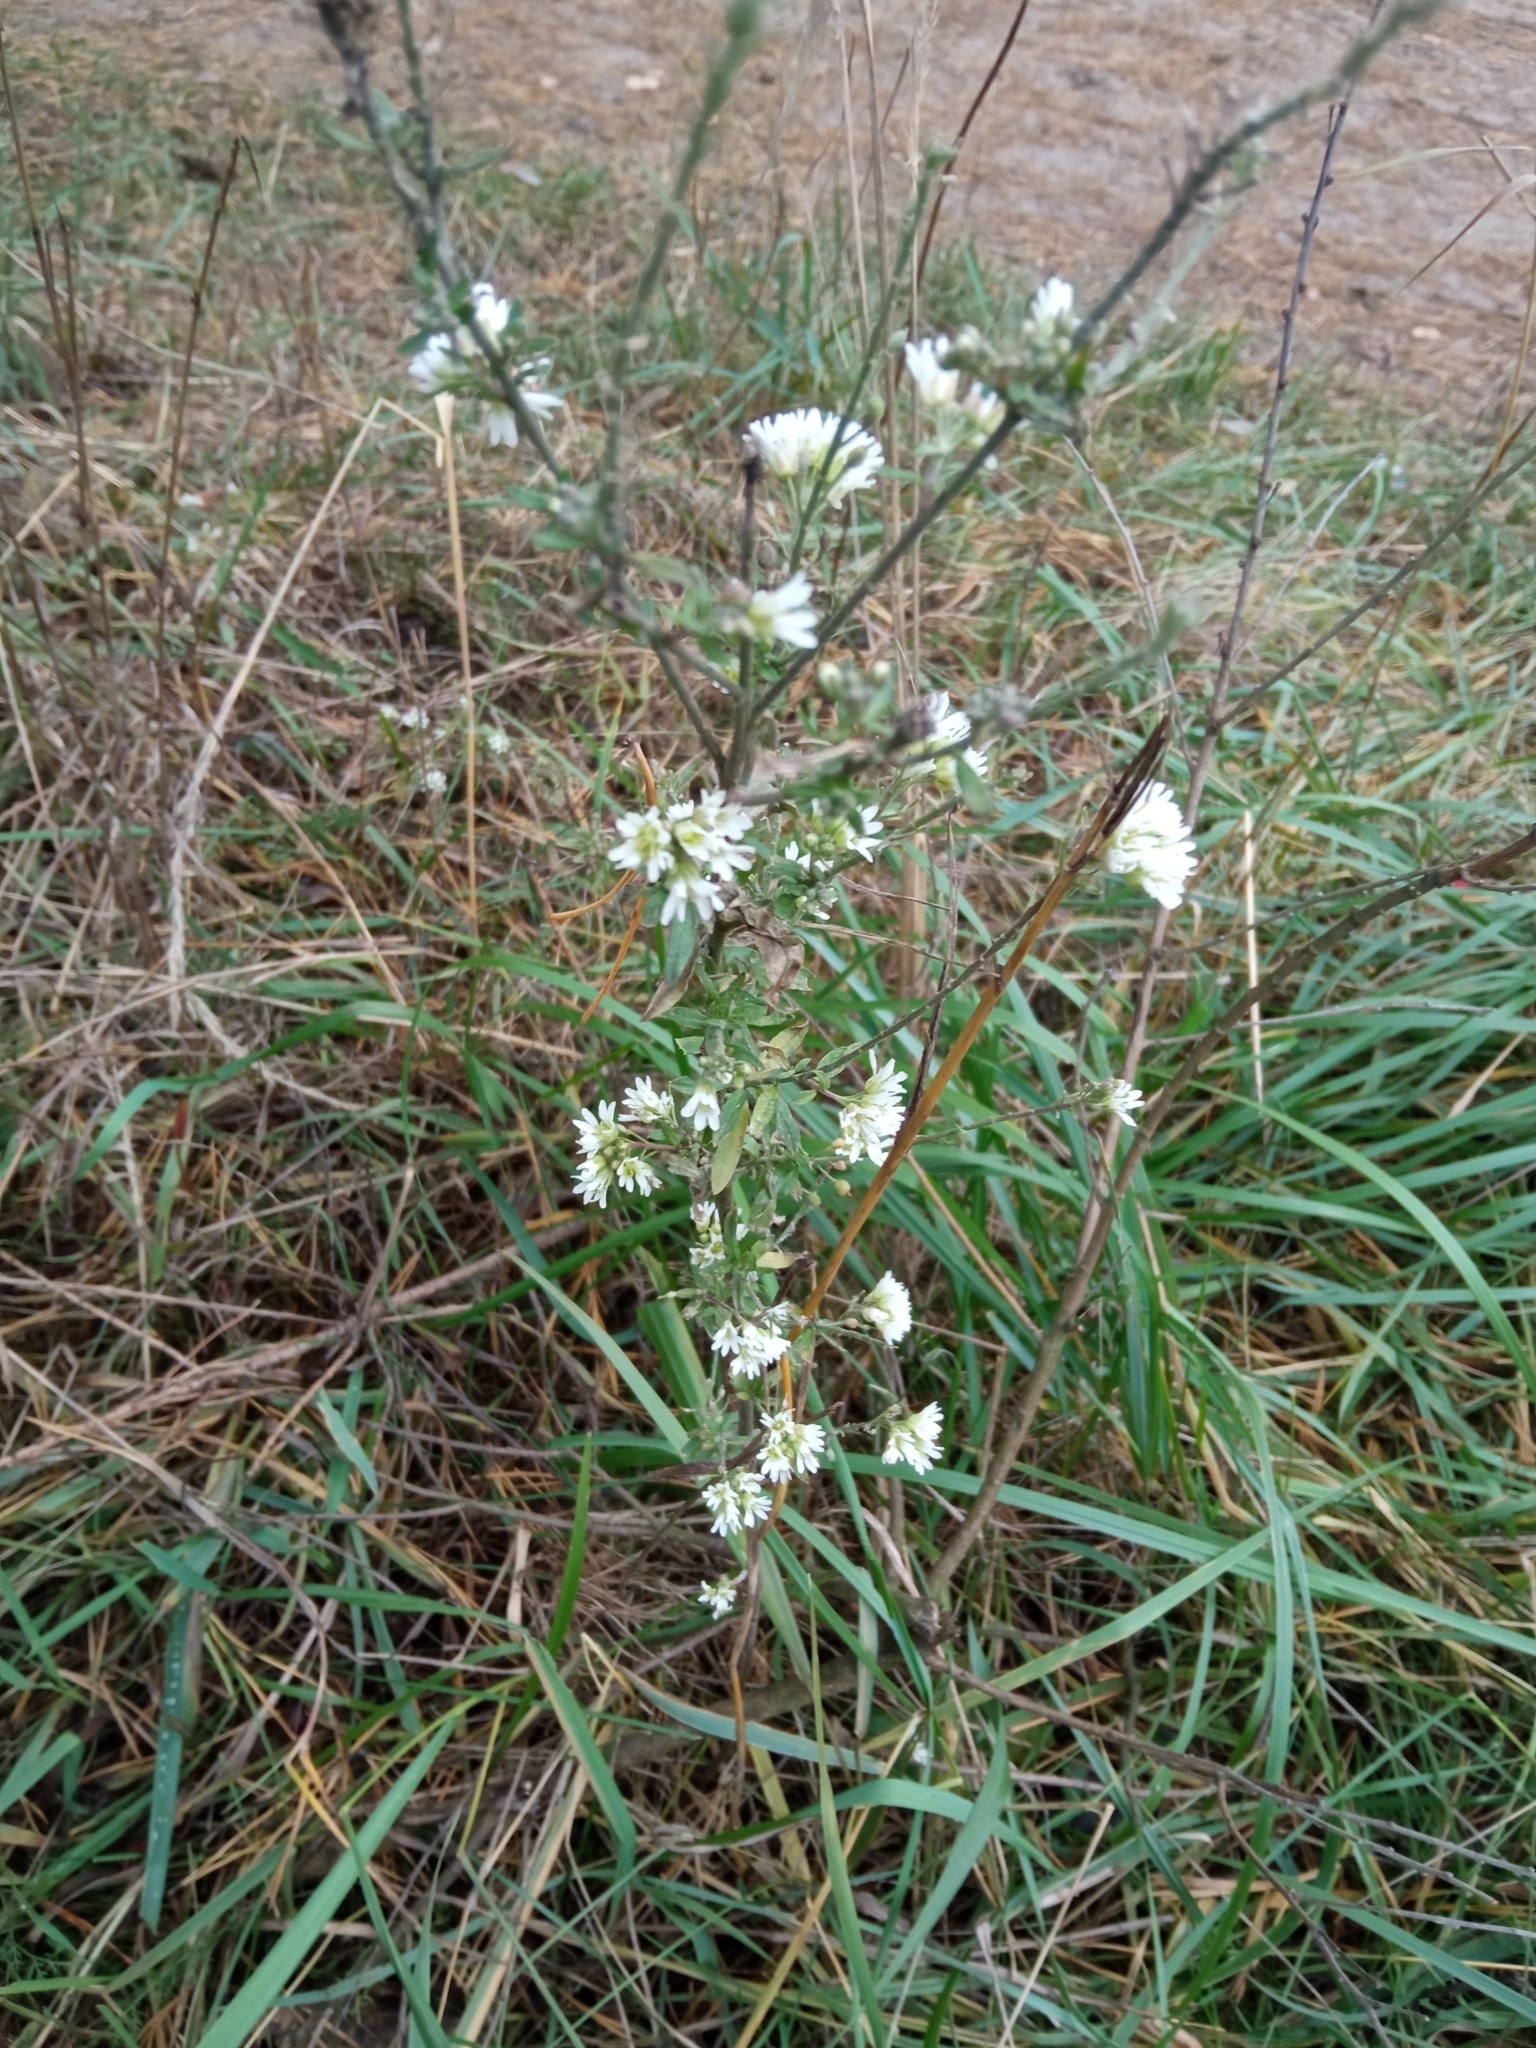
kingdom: Plantae
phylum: Tracheophyta
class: Magnoliopsida
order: Brassicales
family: Brassicaceae
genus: Berteroa
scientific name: Berteroa incana
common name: Hoary alison
